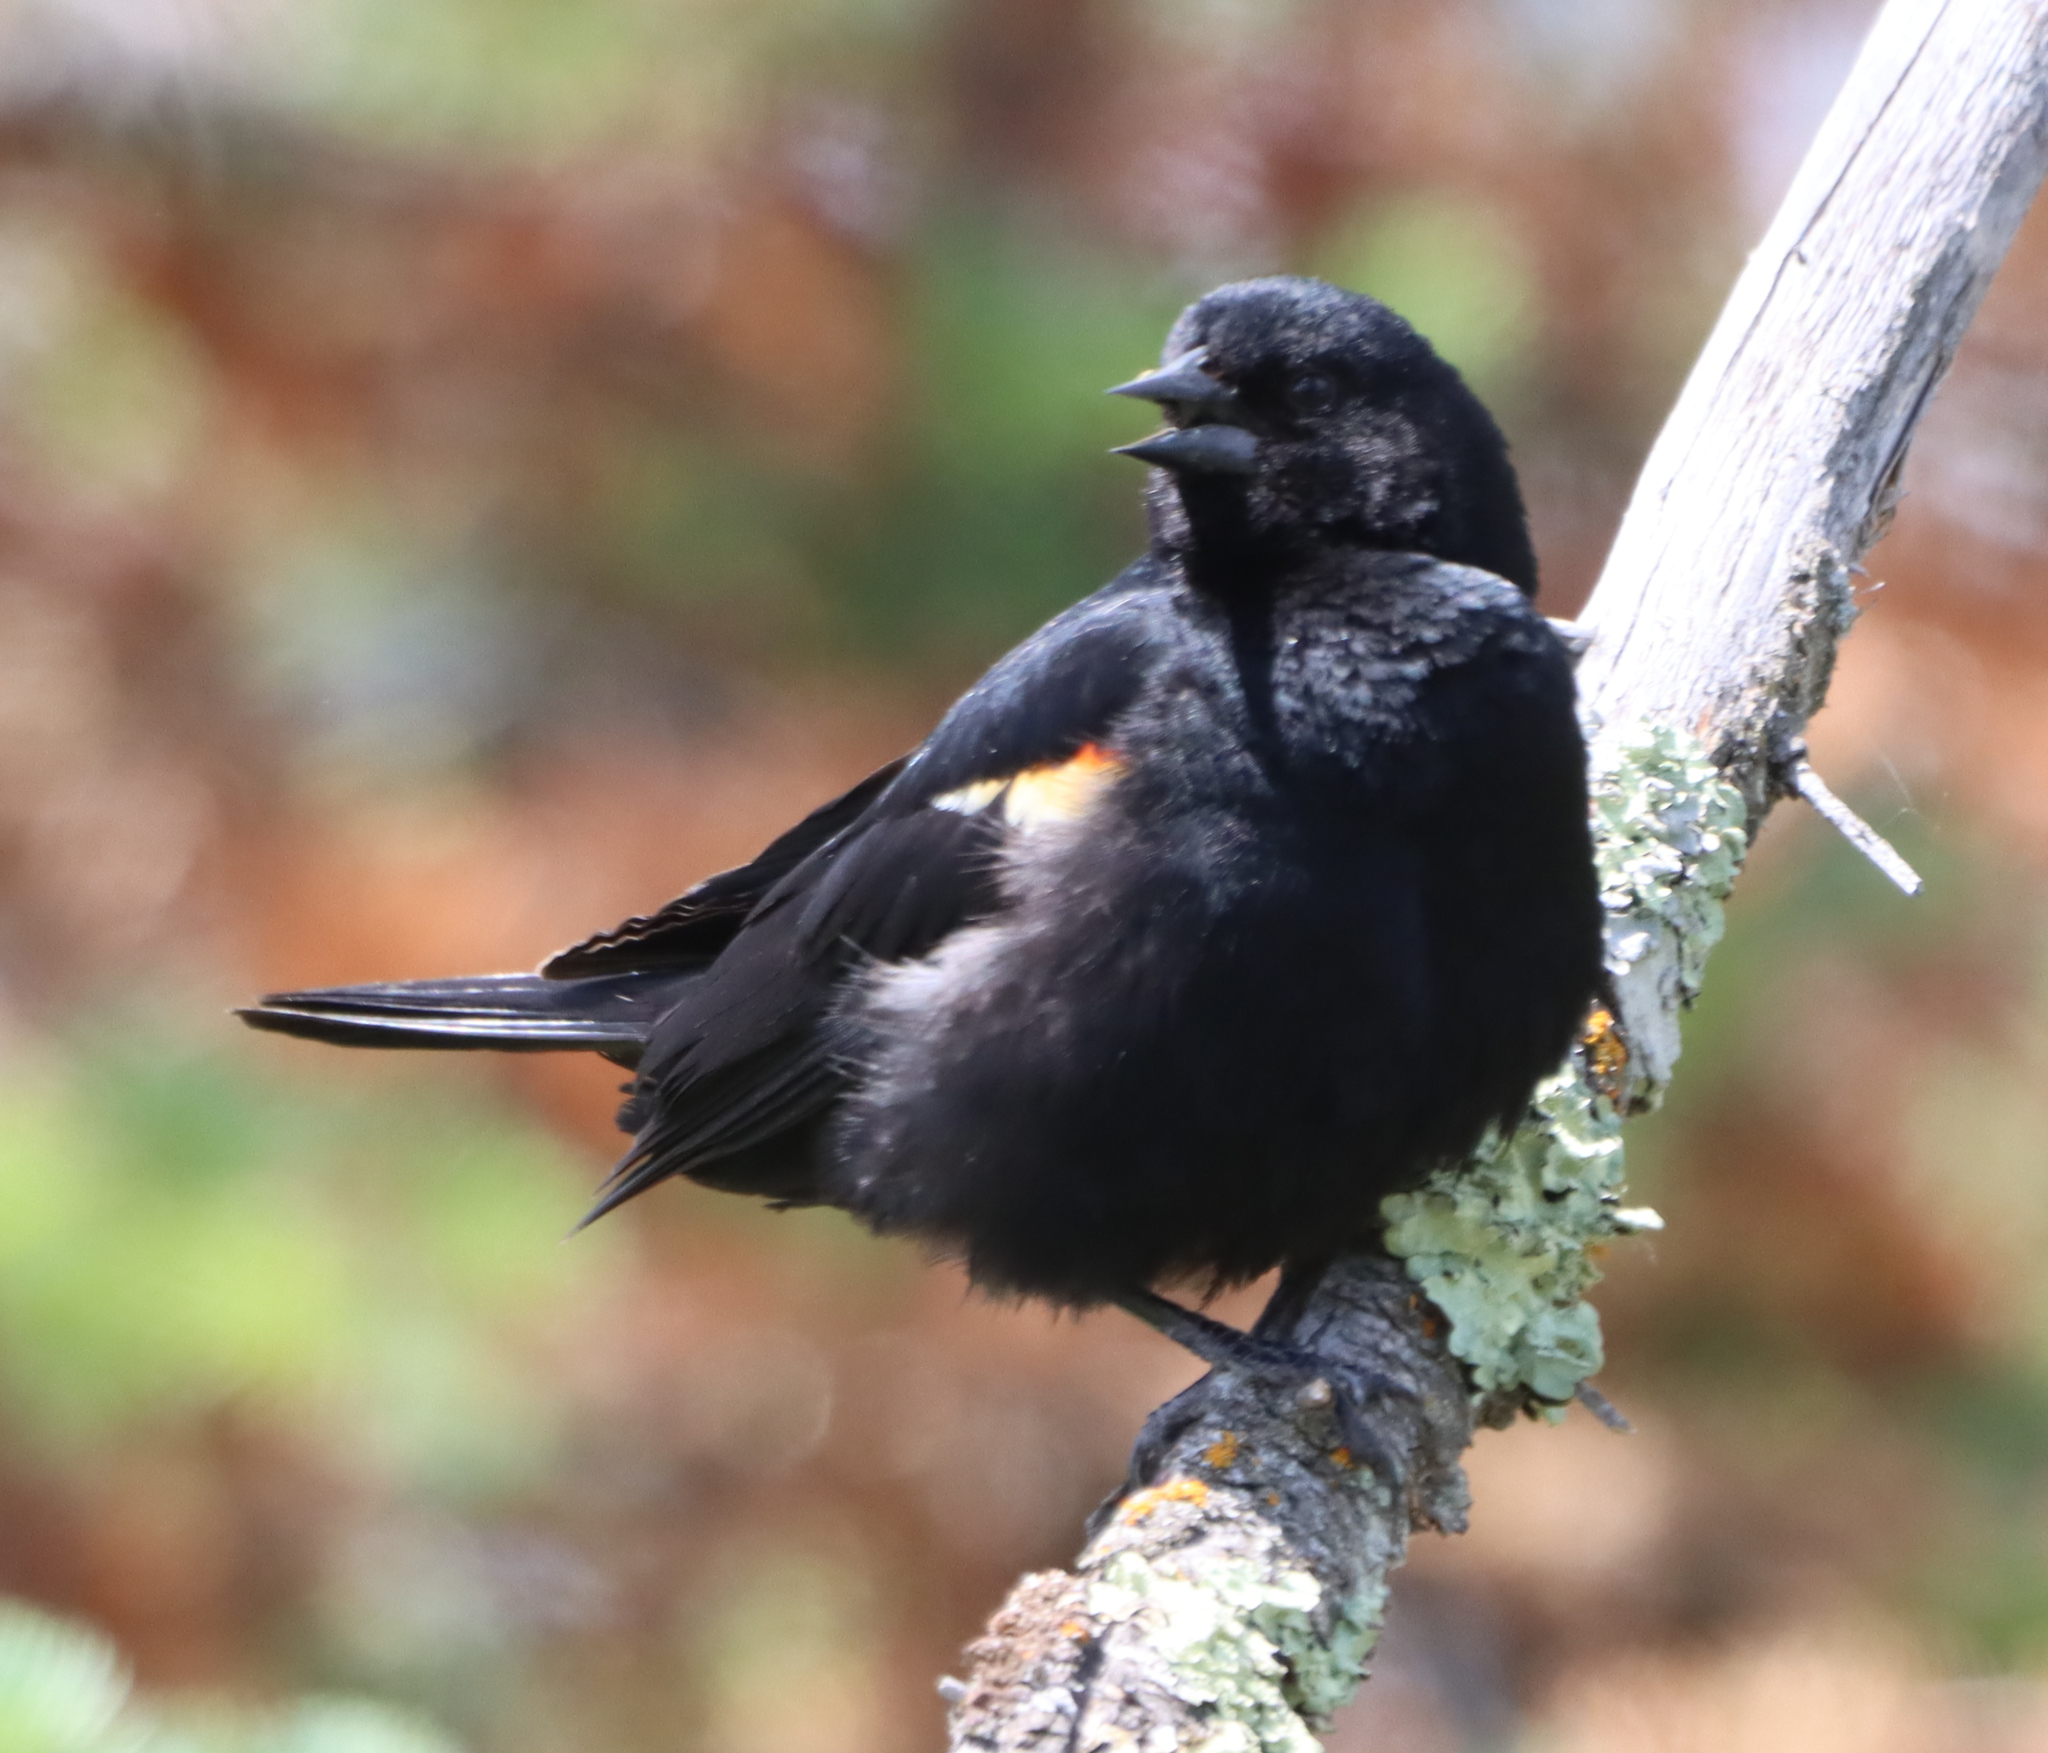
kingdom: Animalia
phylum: Chordata
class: Aves
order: Passeriformes
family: Icteridae
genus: Agelaius
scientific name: Agelaius phoeniceus
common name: Red-winged blackbird
